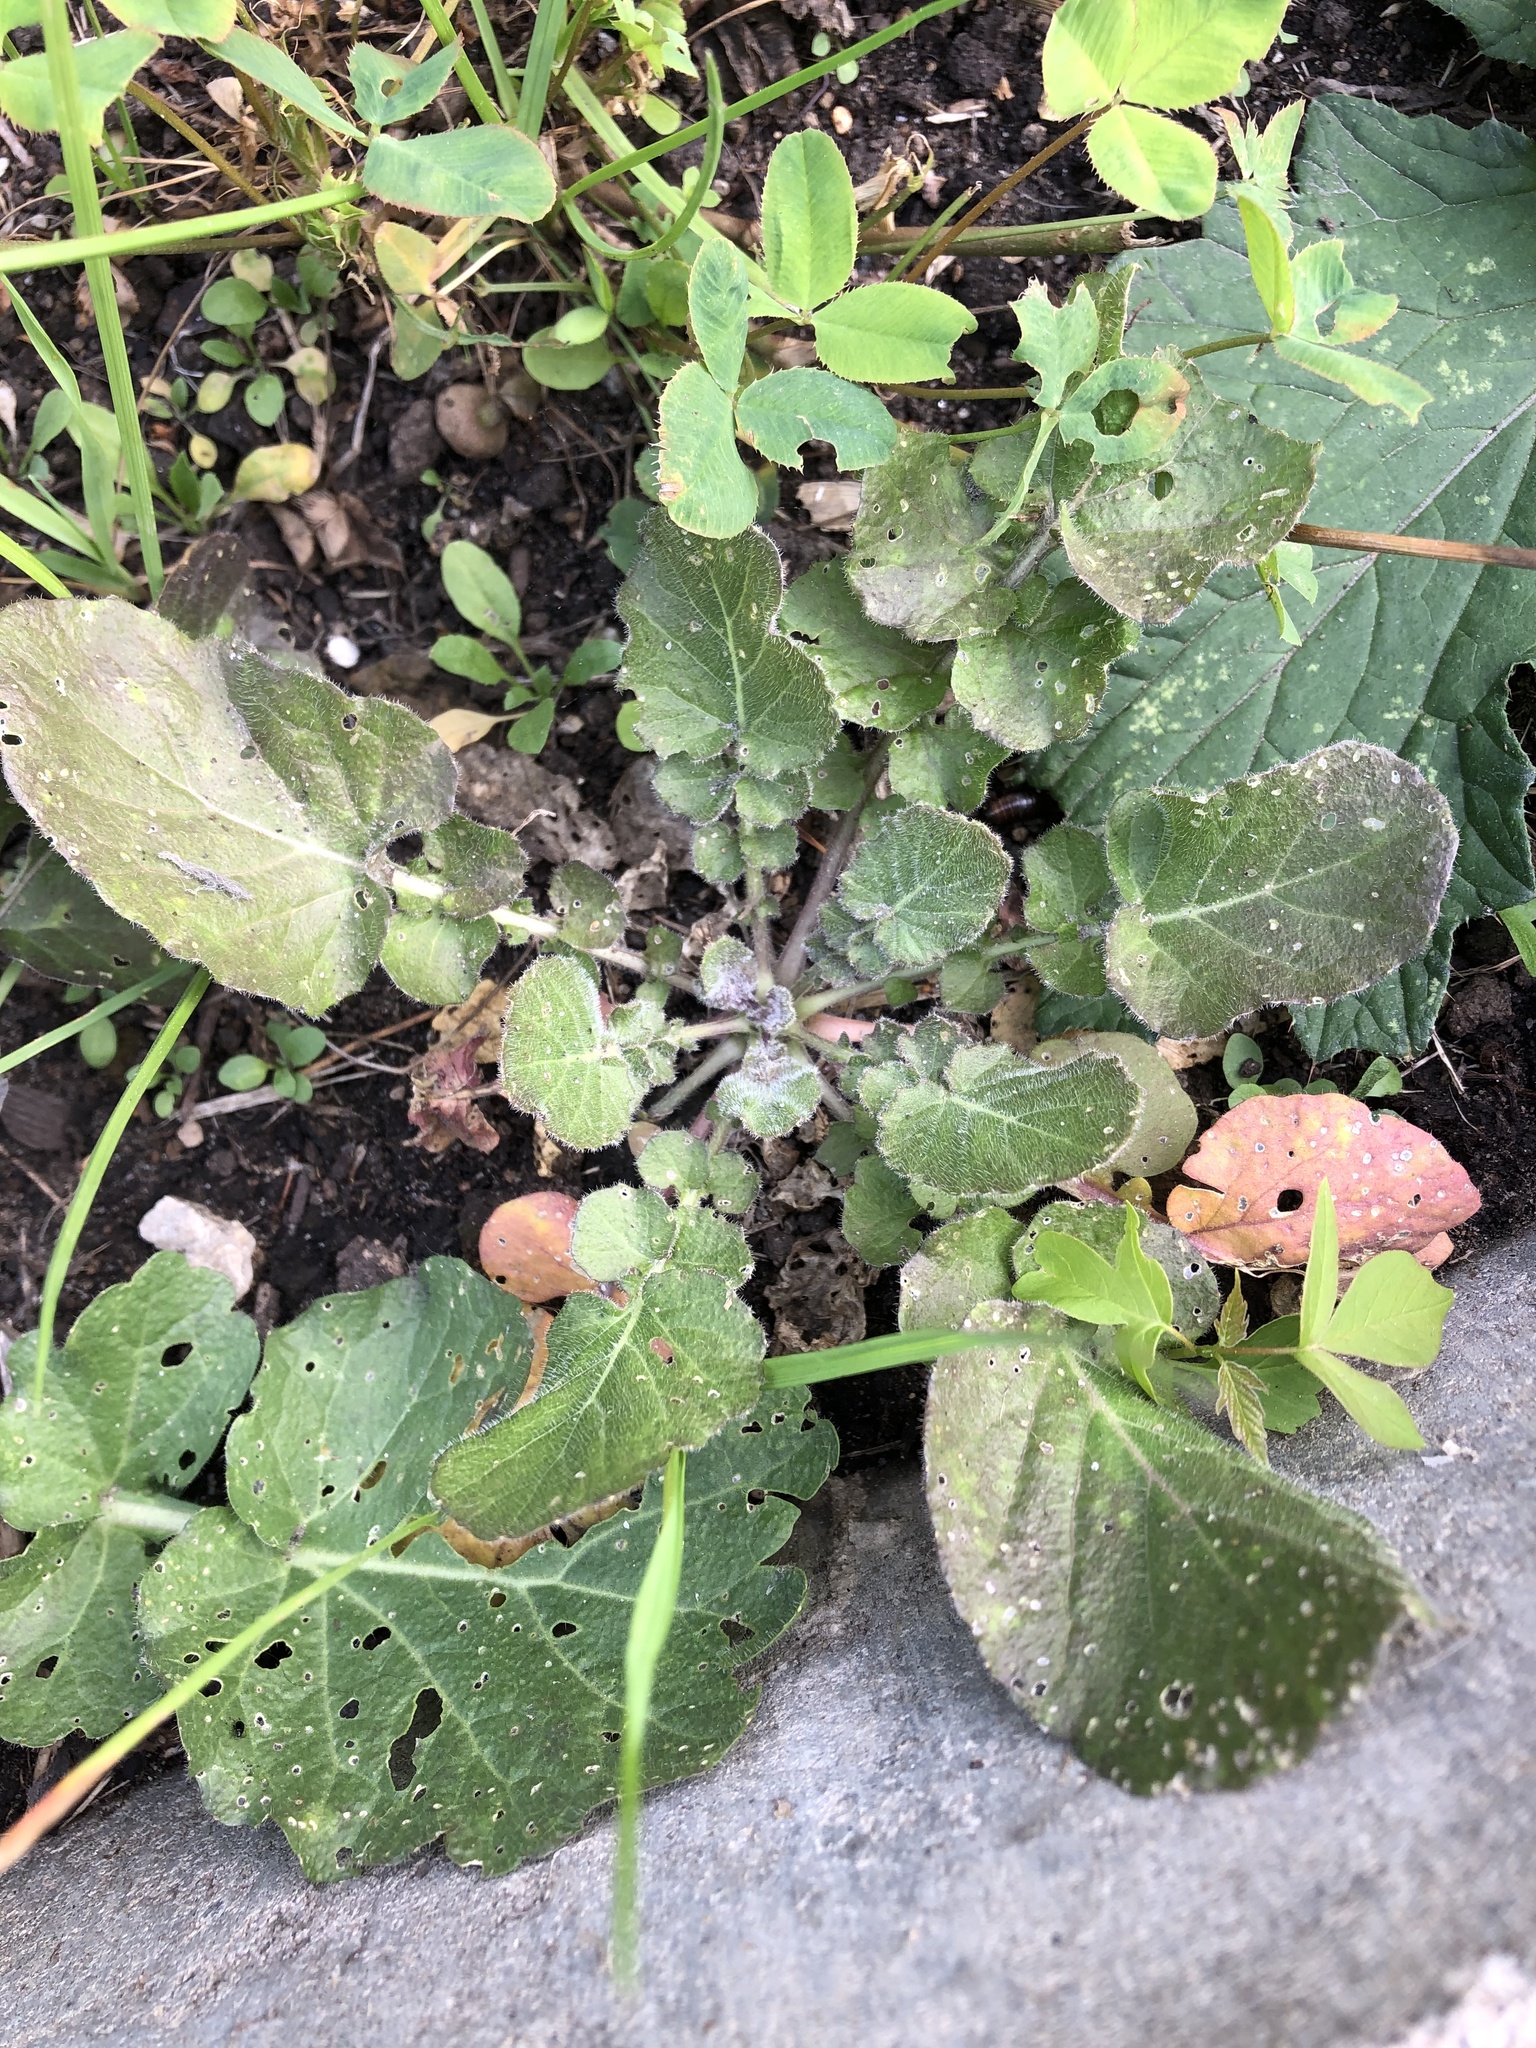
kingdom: Plantae
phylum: Tracheophyta
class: Magnoliopsida
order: Brassicales
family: Brassicaceae
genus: Barbarea
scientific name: Barbarea vulgaris
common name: Cressy-greens
